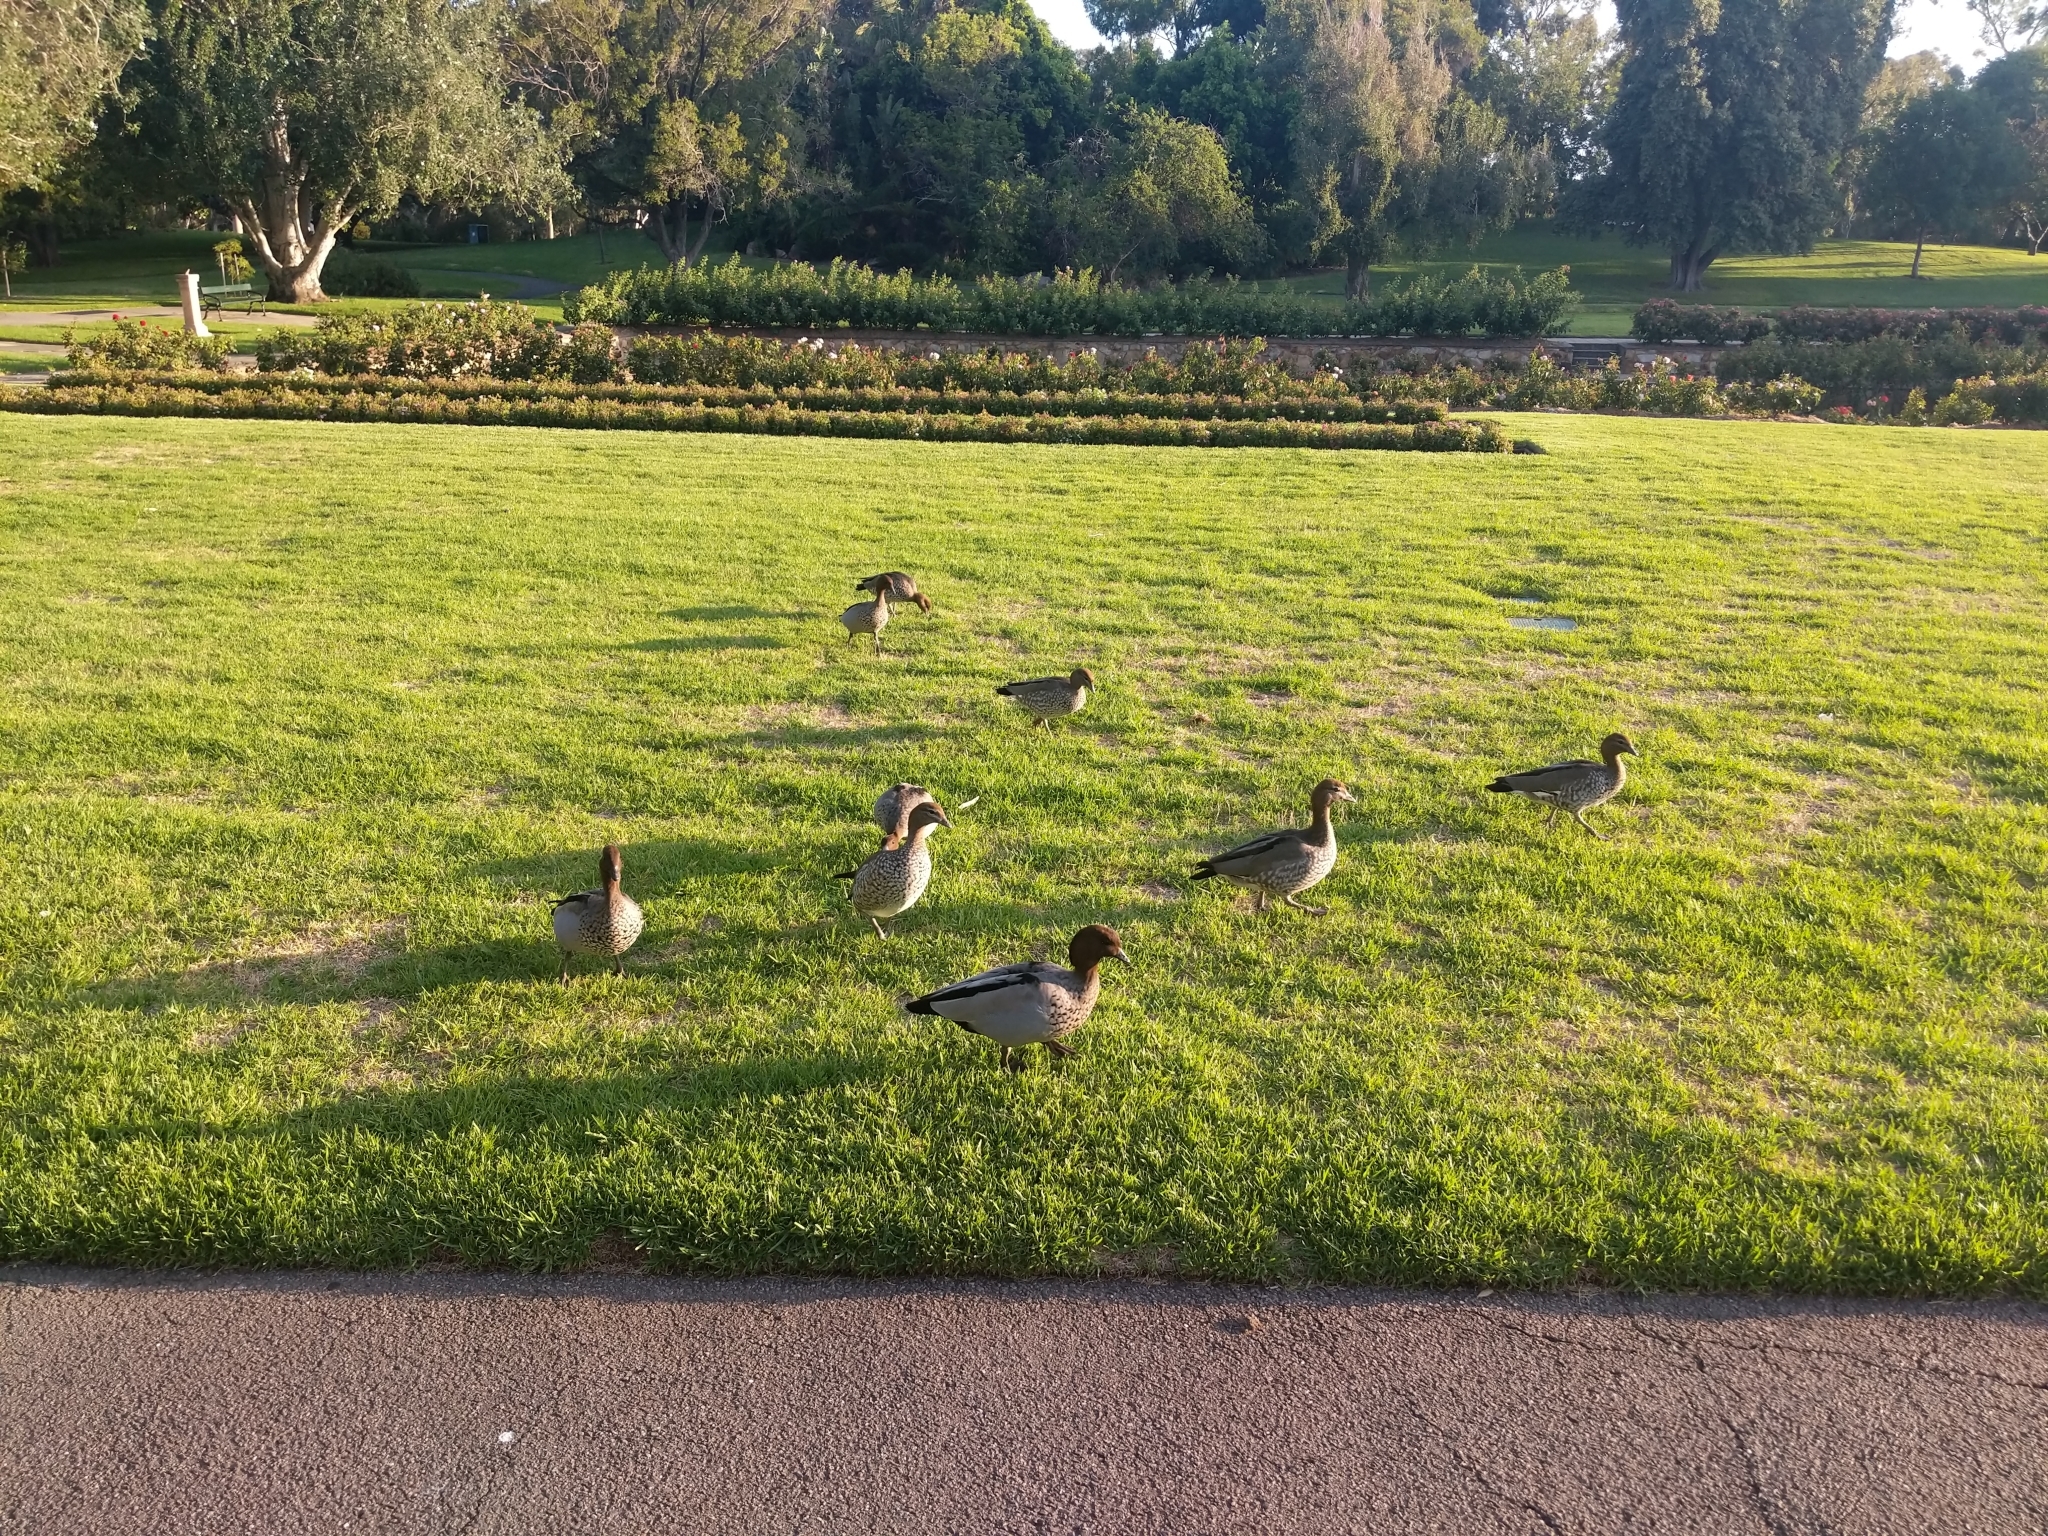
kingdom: Animalia
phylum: Chordata
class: Aves
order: Anseriformes
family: Anatidae
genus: Chenonetta
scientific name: Chenonetta jubata
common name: Maned duck
